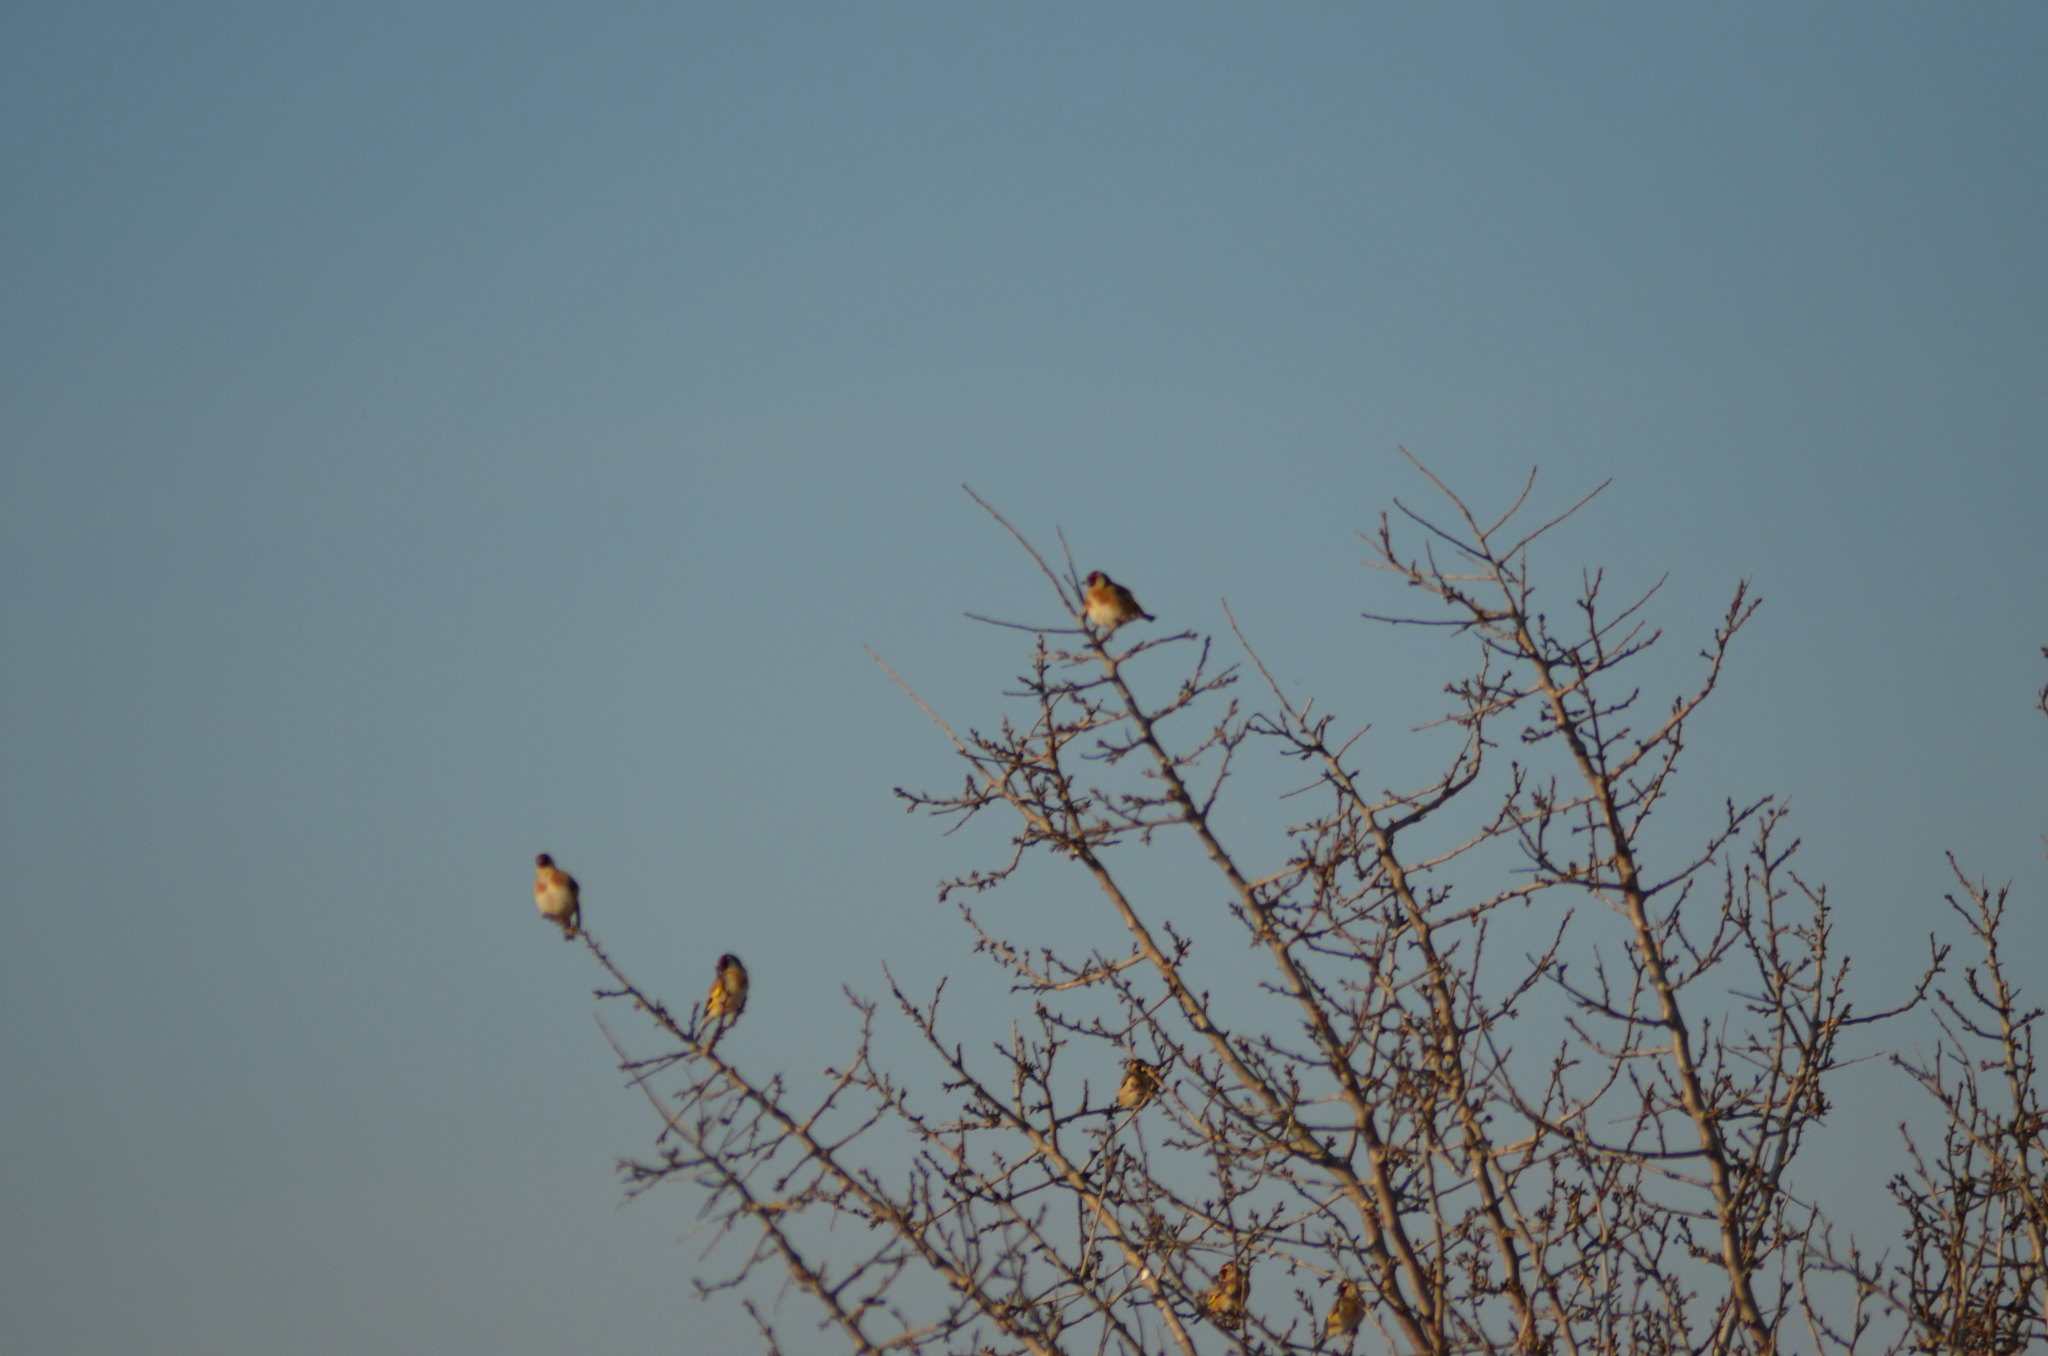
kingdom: Animalia
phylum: Chordata
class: Aves
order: Passeriformes
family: Fringillidae
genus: Carduelis
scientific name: Carduelis carduelis
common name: European goldfinch
